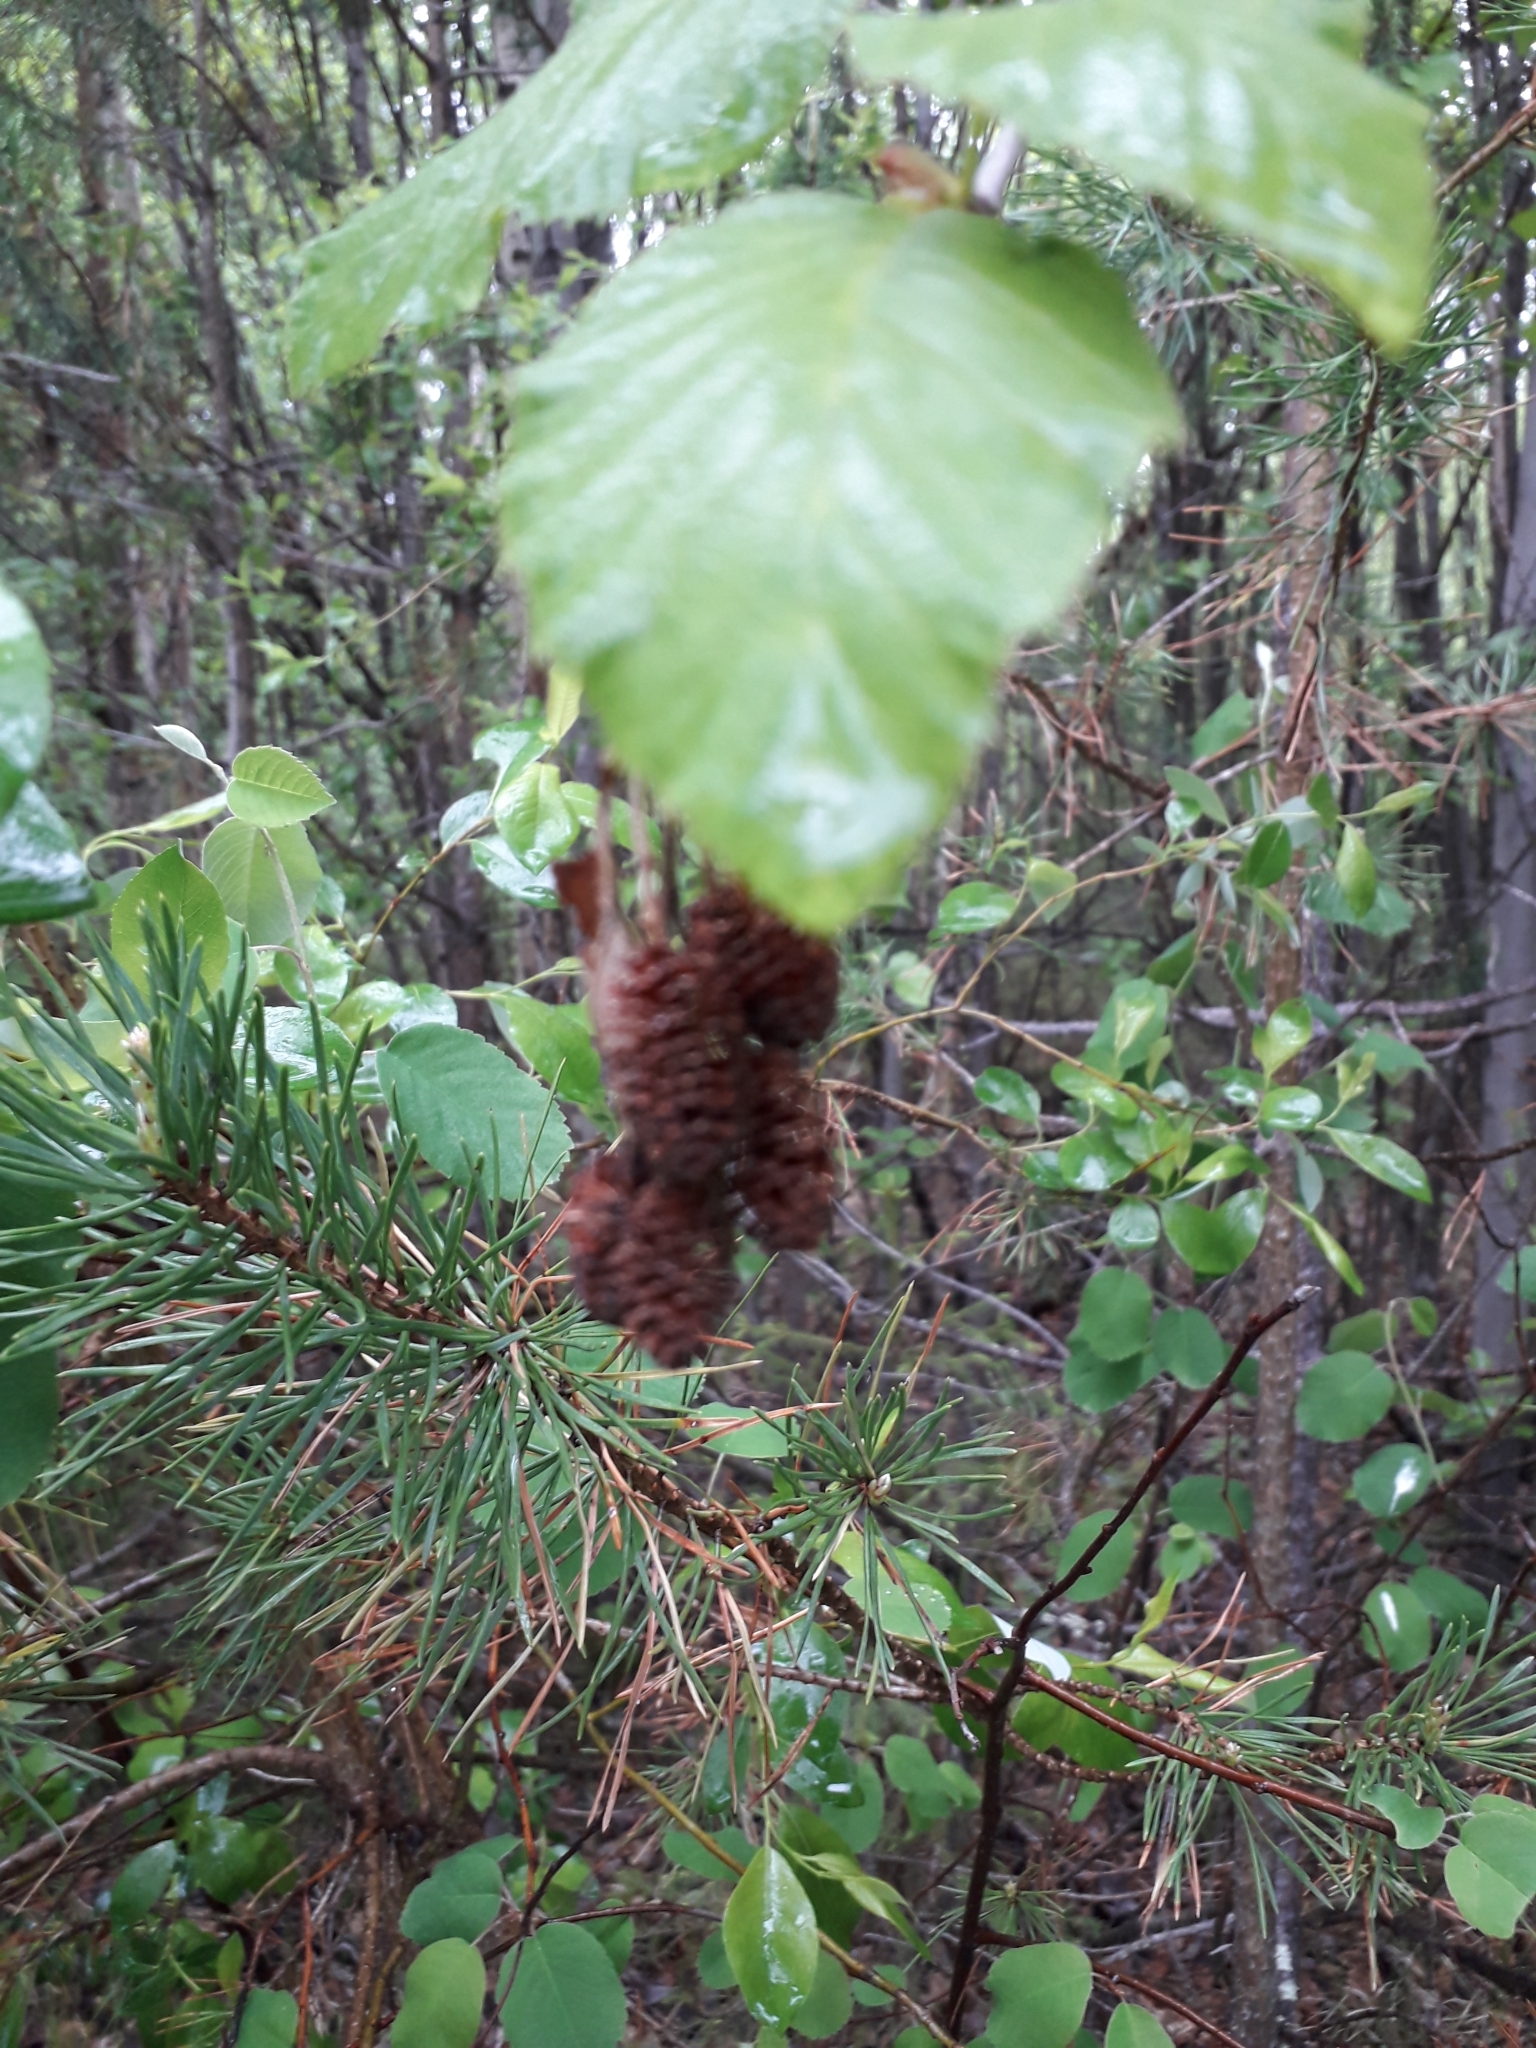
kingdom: Plantae
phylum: Tracheophyta
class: Magnoliopsida
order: Fagales
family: Betulaceae
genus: Alnus
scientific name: Alnus alnobetula
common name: Green alder
